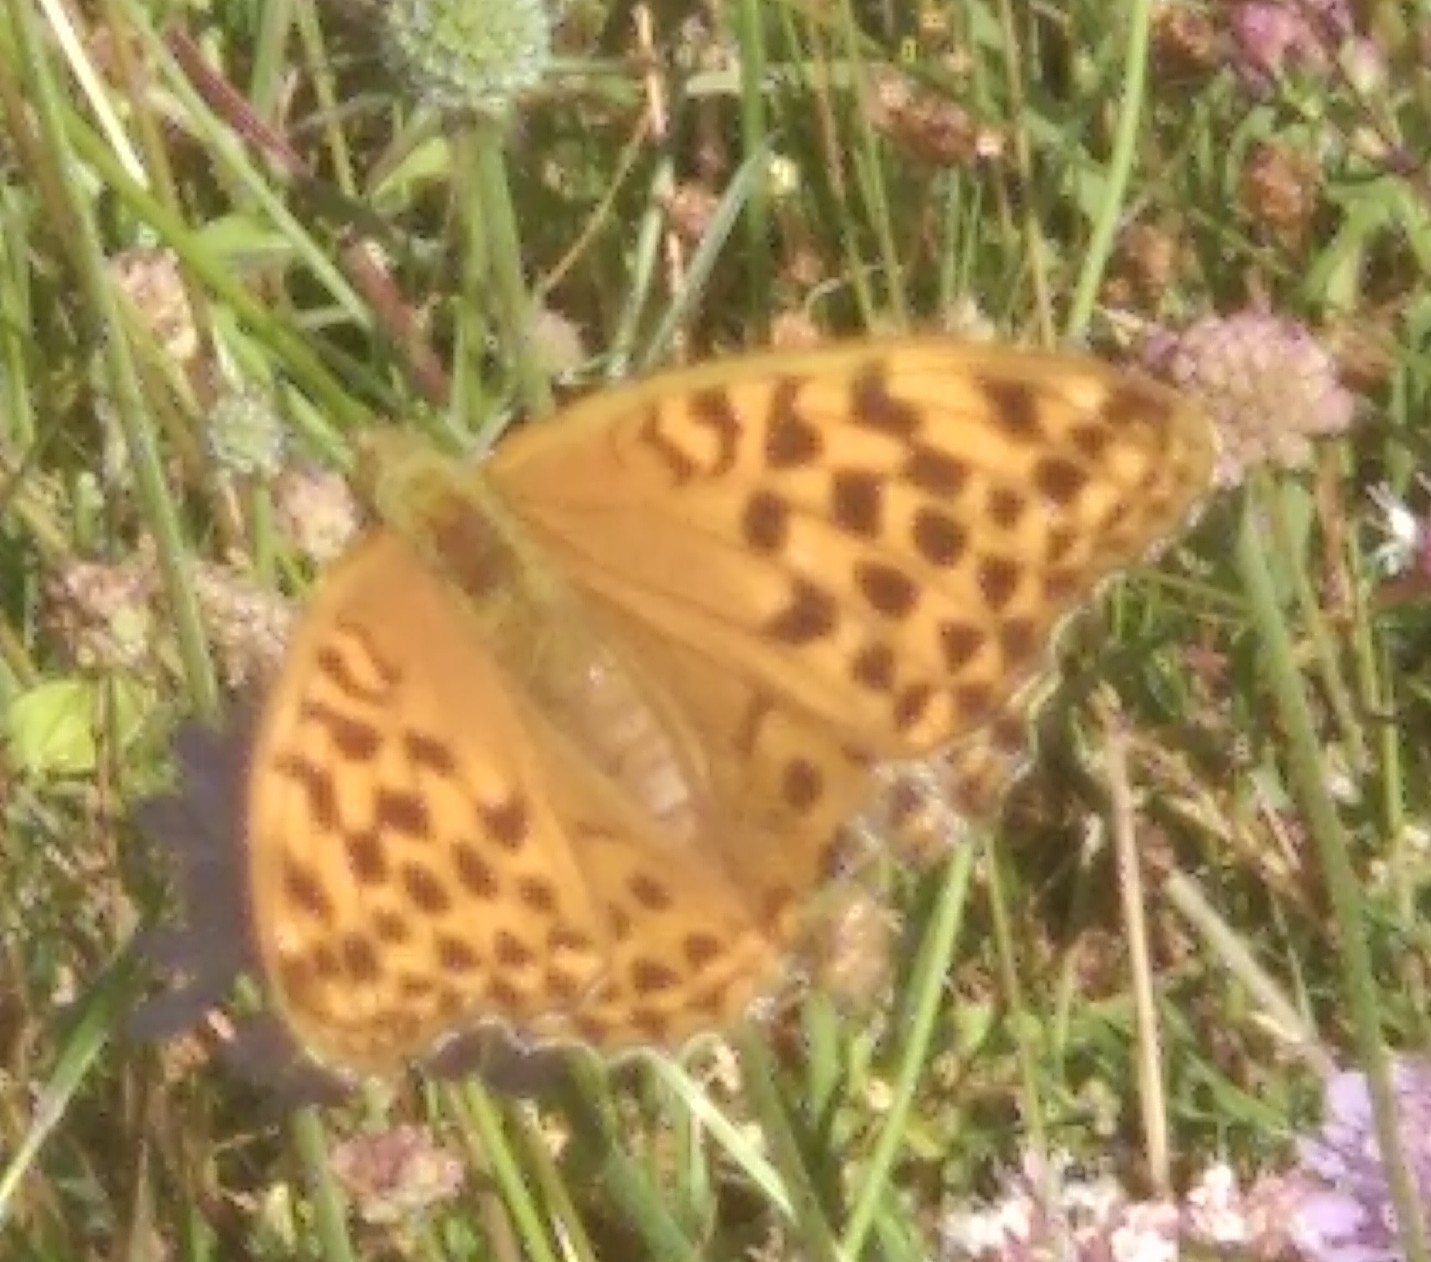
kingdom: Animalia
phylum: Arthropoda
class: Insecta
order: Lepidoptera
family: Nymphalidae
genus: Argynnis
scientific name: Argynnis paphia
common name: Silver-washed fritillary
